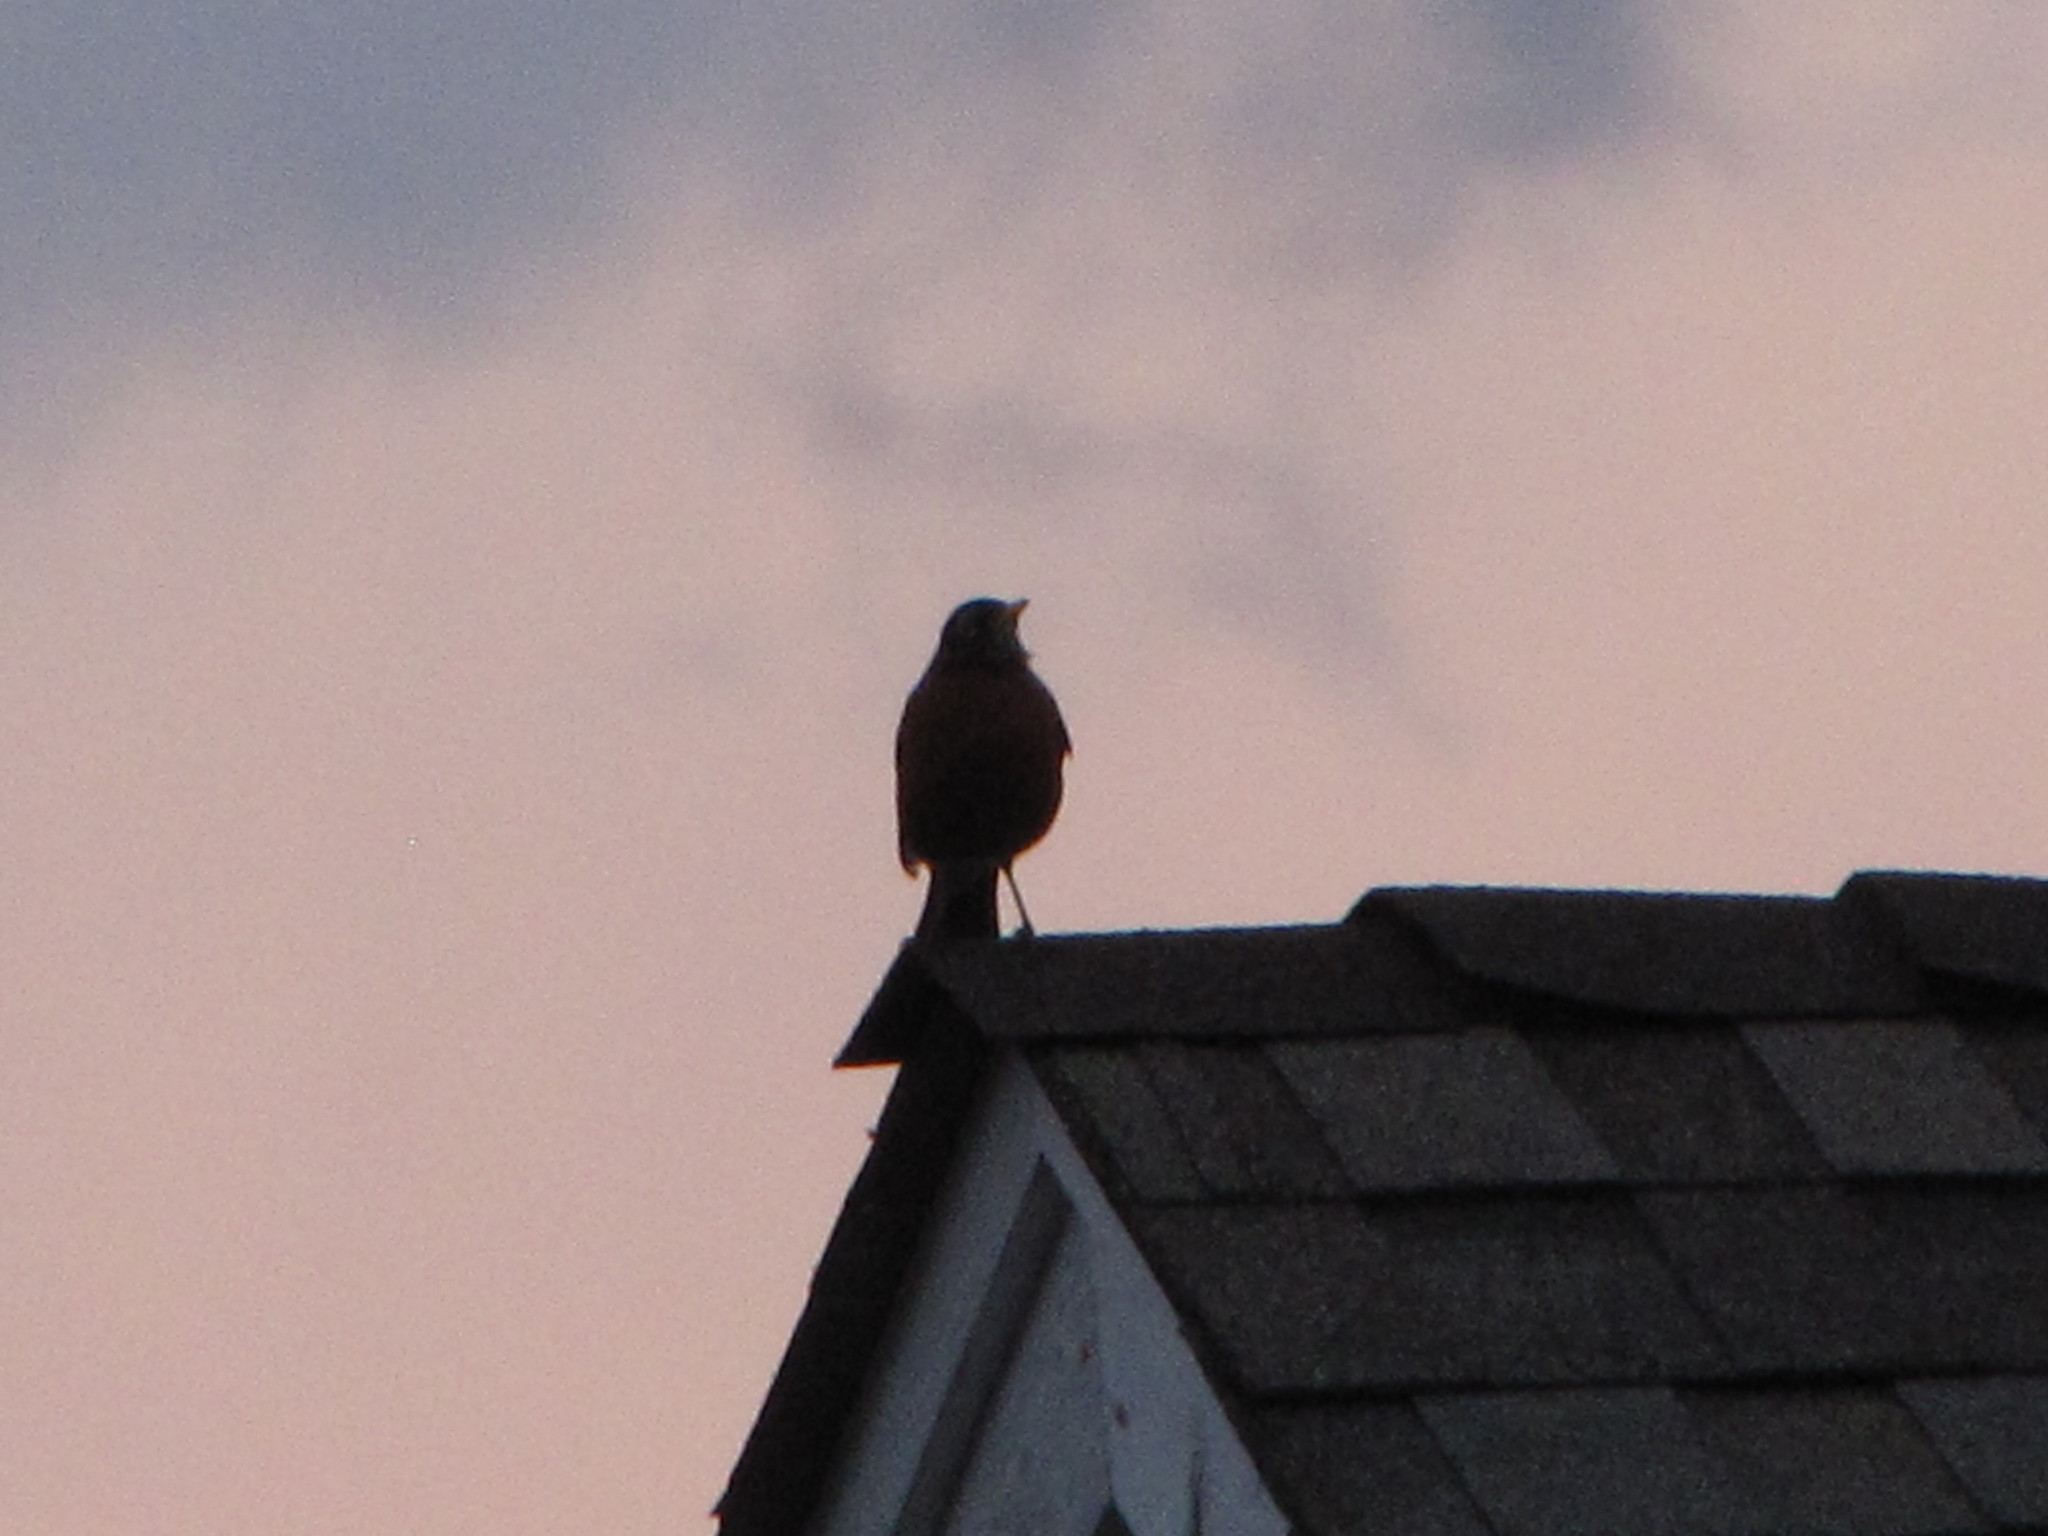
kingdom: Animalia
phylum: Chordata
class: Aves
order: Passeriformes
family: Turdidae
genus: Turdus
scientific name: Turdus migratorius
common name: American robin
